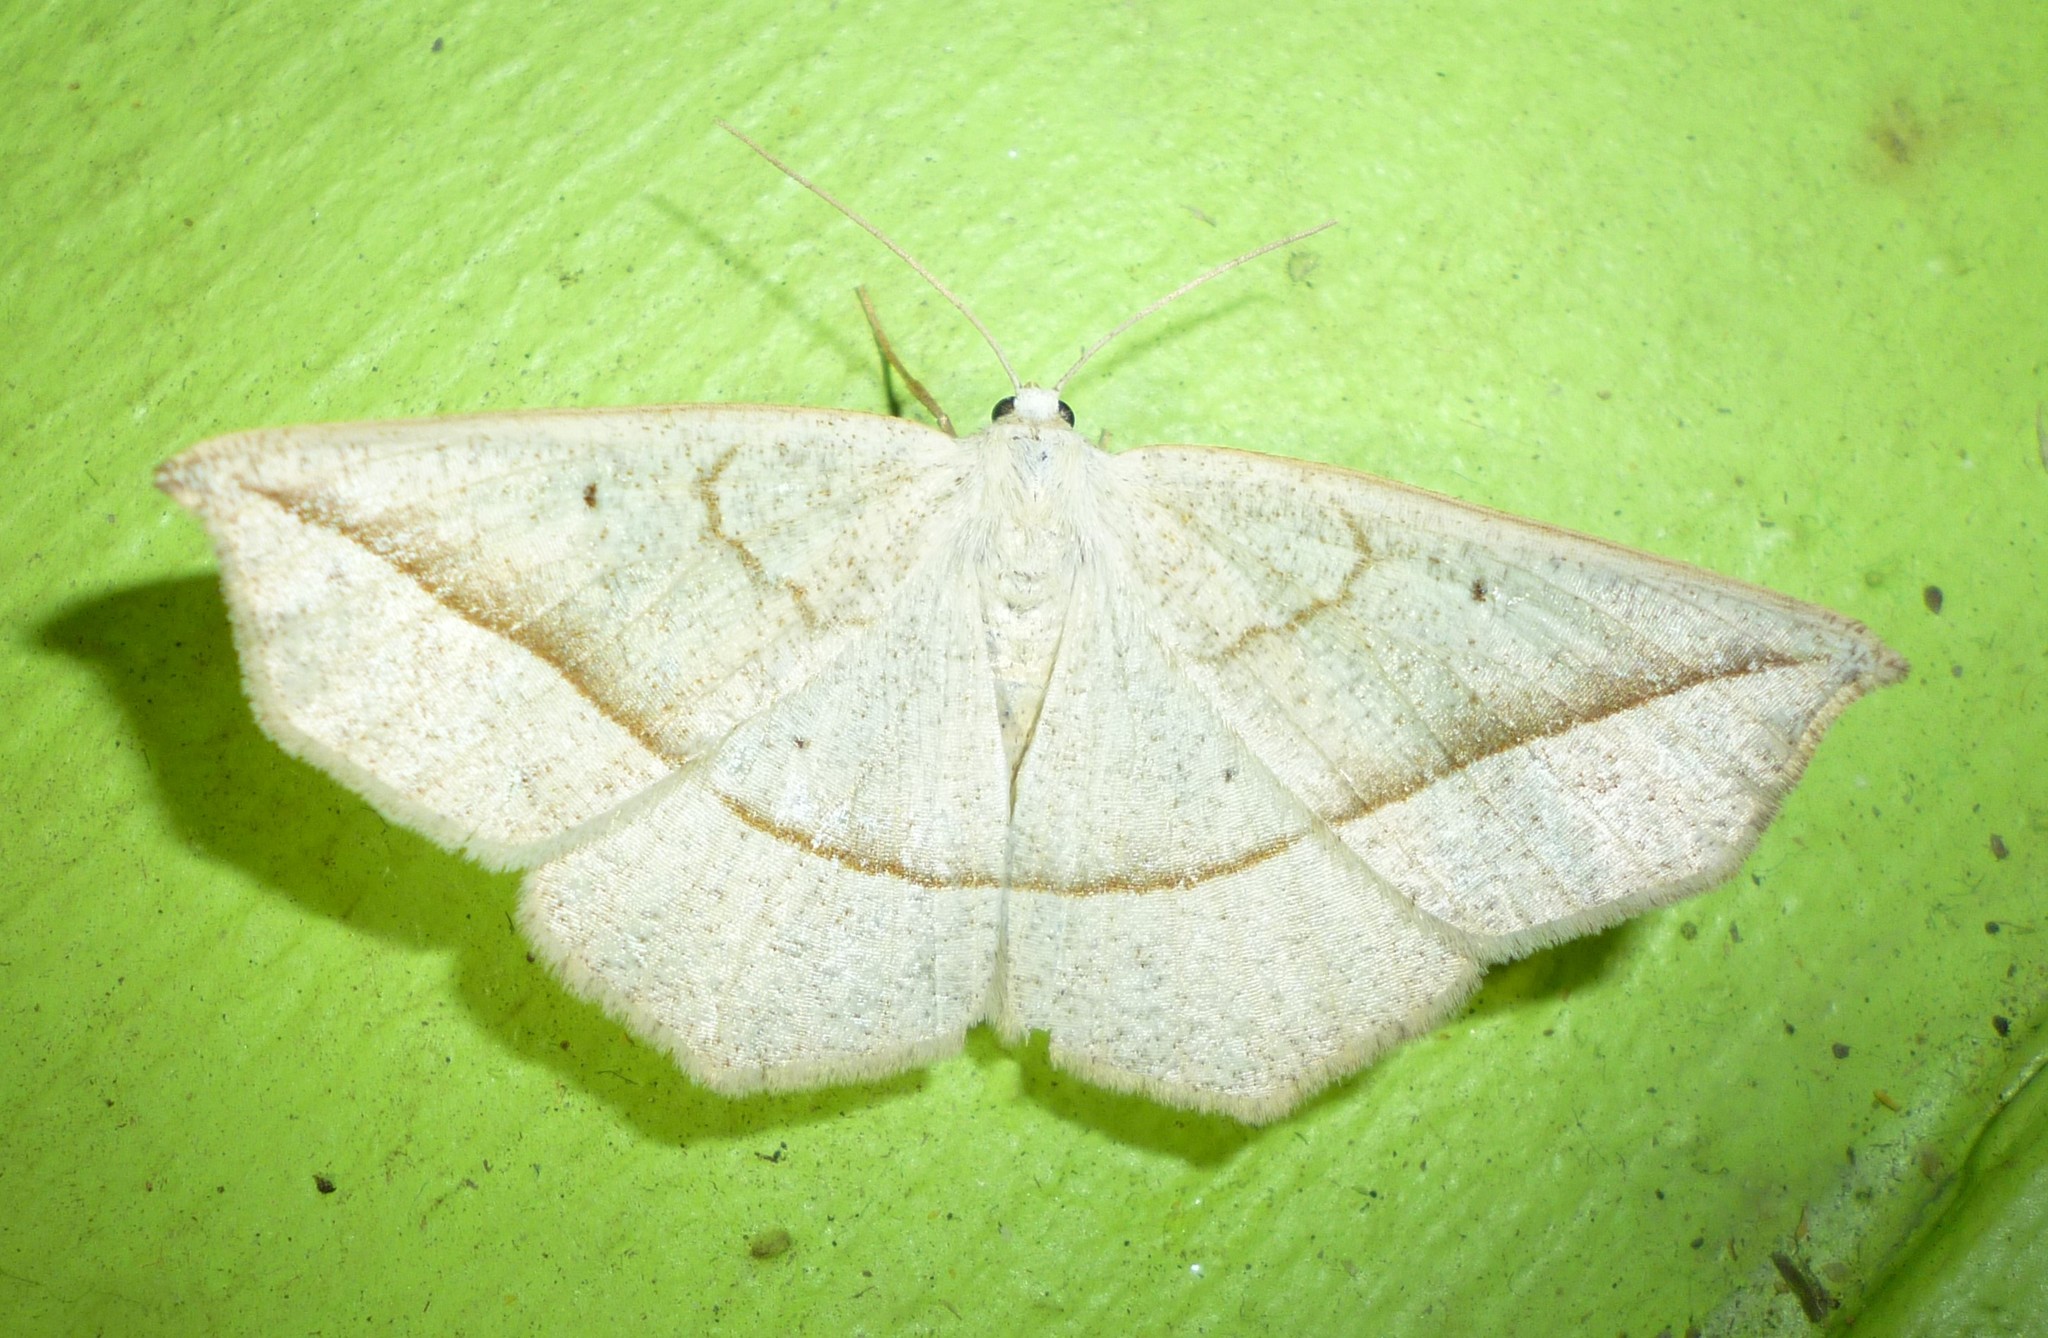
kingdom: Animalia
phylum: Arthropoda
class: Insecta
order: Lepidoptera
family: Geometridae
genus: Eusarca
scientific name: Eusarca confusaria
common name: Confused eusarca
